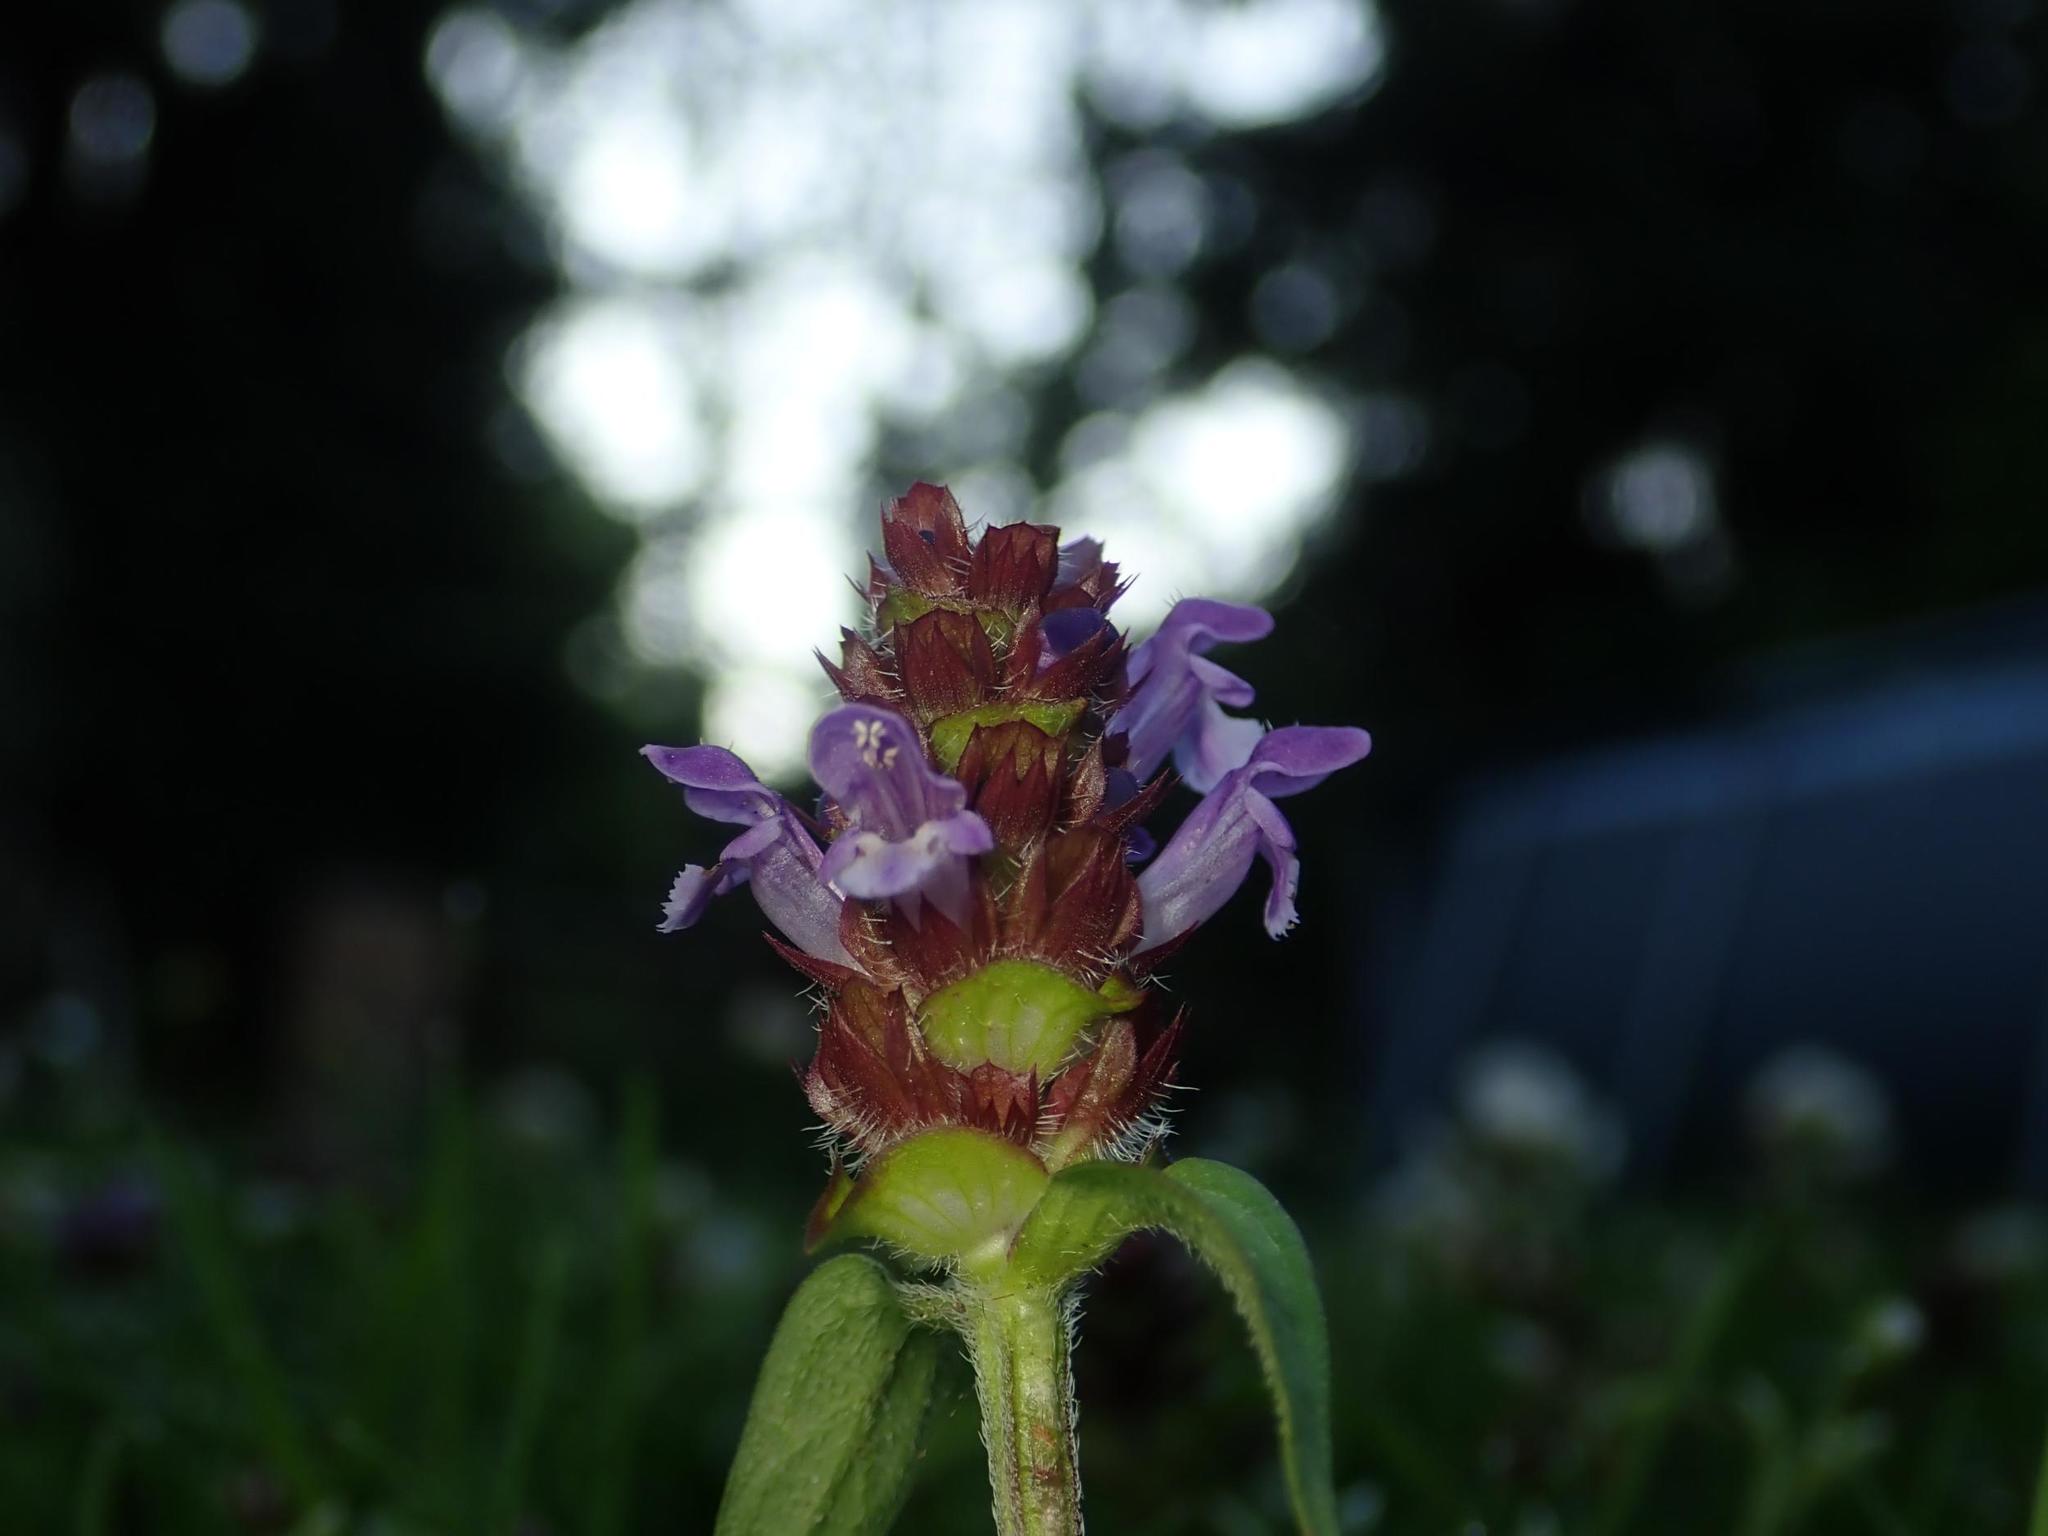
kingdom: Plantae
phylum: Tracheophyta
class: Magnoliopsida
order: Lamiales
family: Lamiaceae
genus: Prunella
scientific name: Prunella vulgaris
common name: Heal-all
